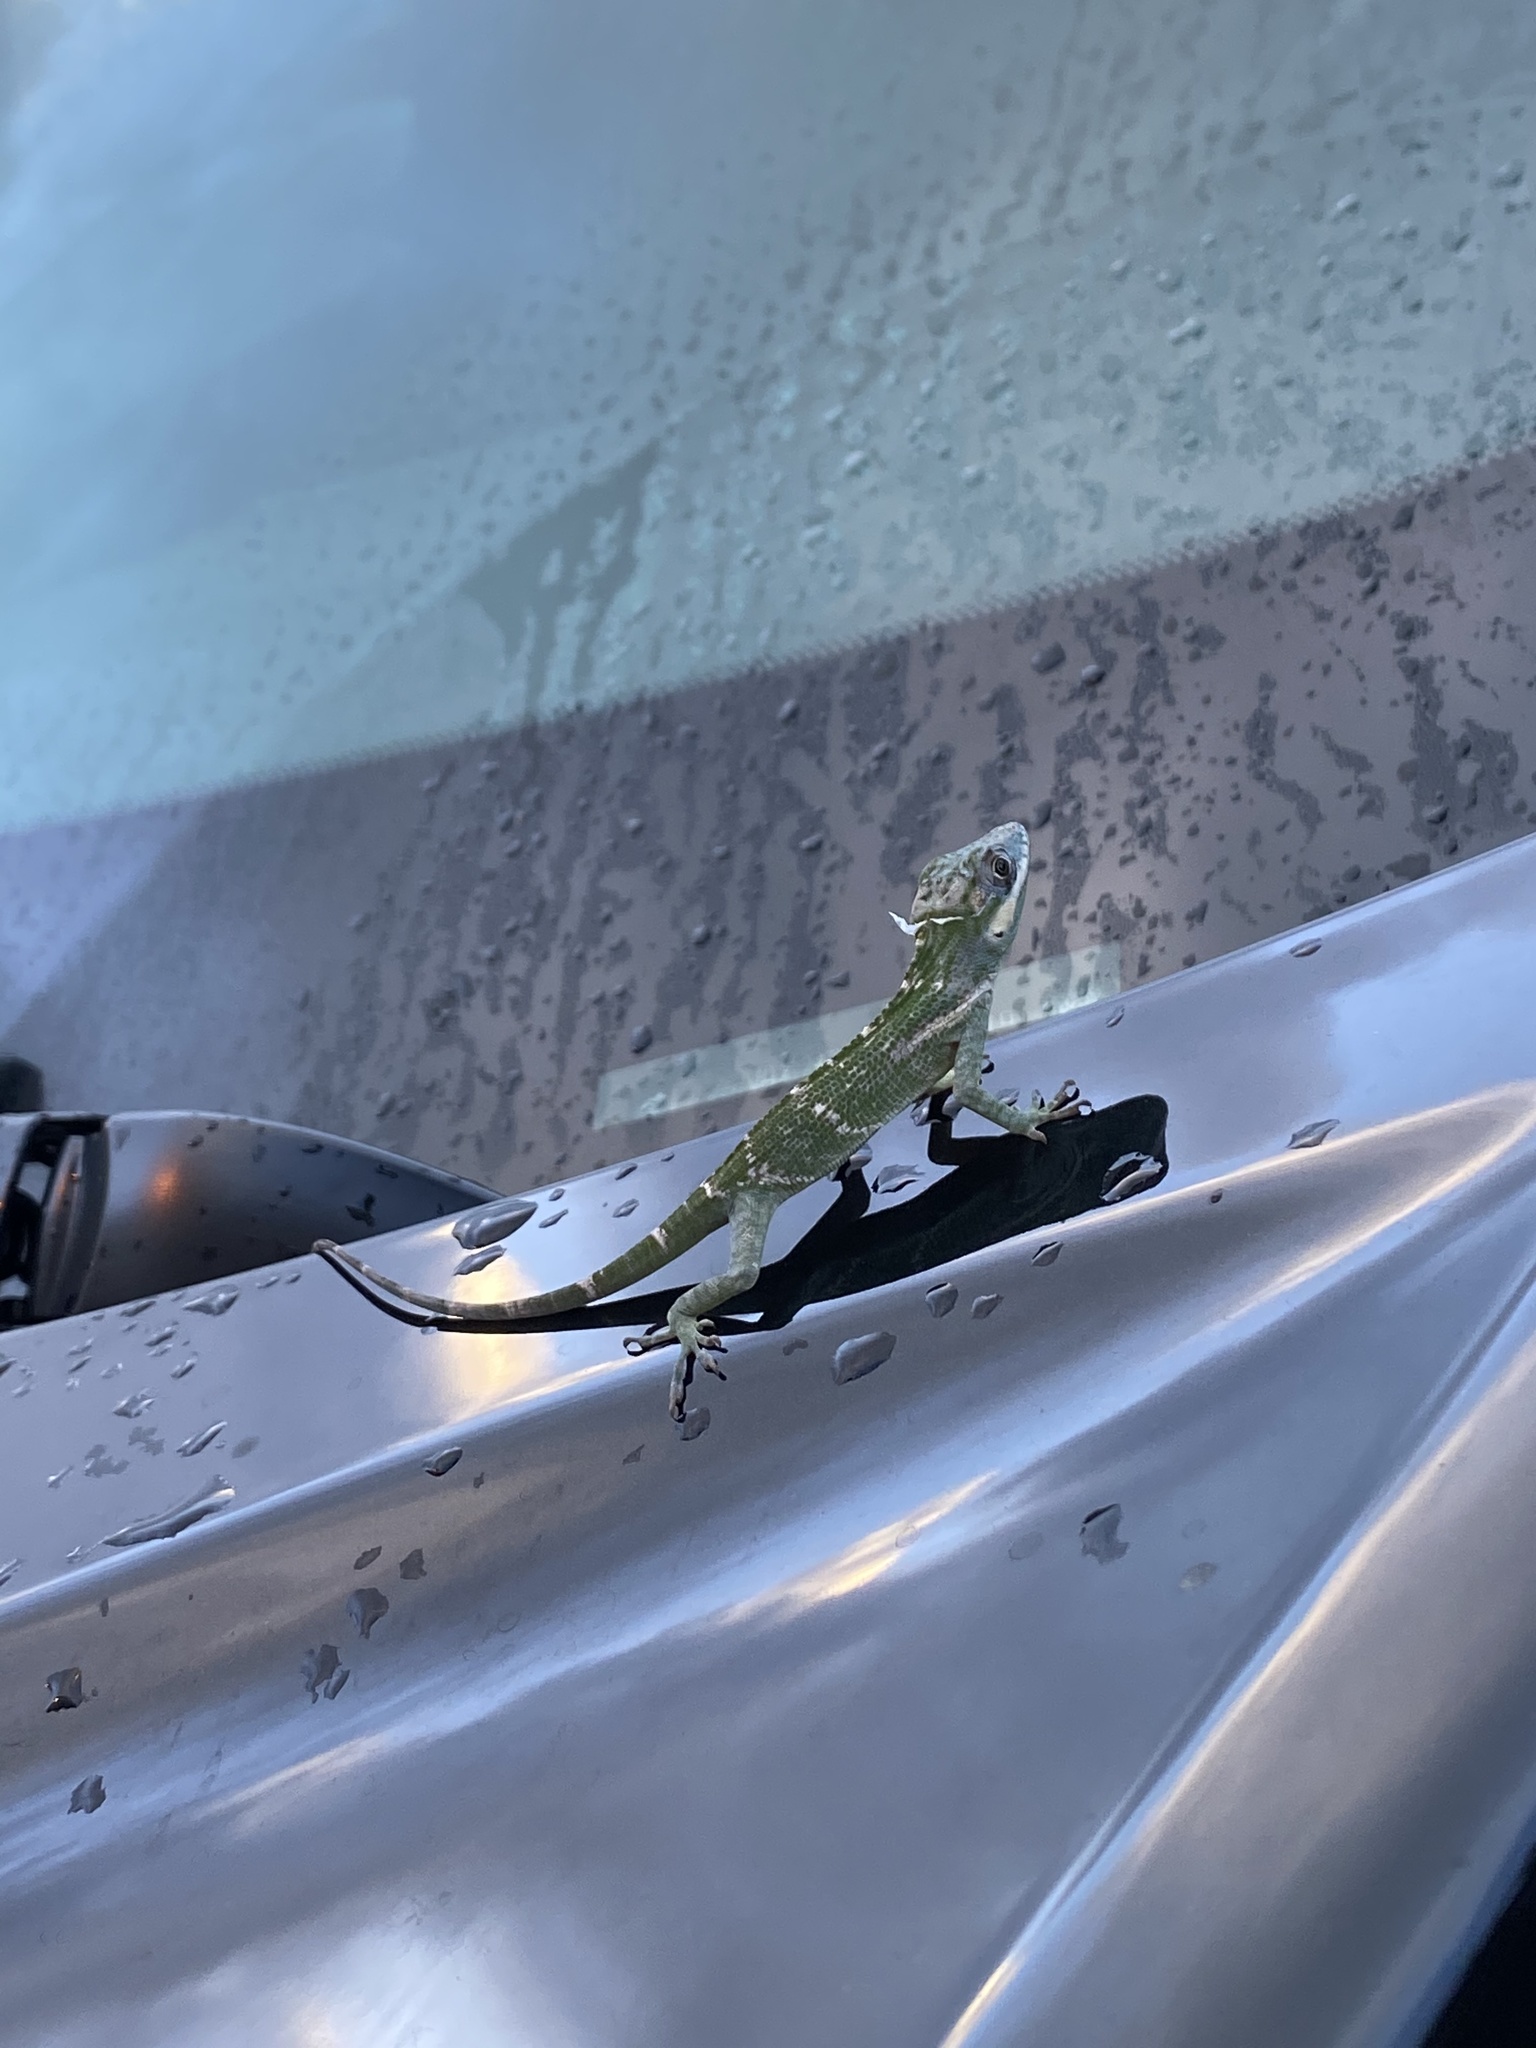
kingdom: Animalia
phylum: Chordata
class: Squamata
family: Dactyloidae
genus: Anolis
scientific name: Anolis equestris
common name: Knight anole
